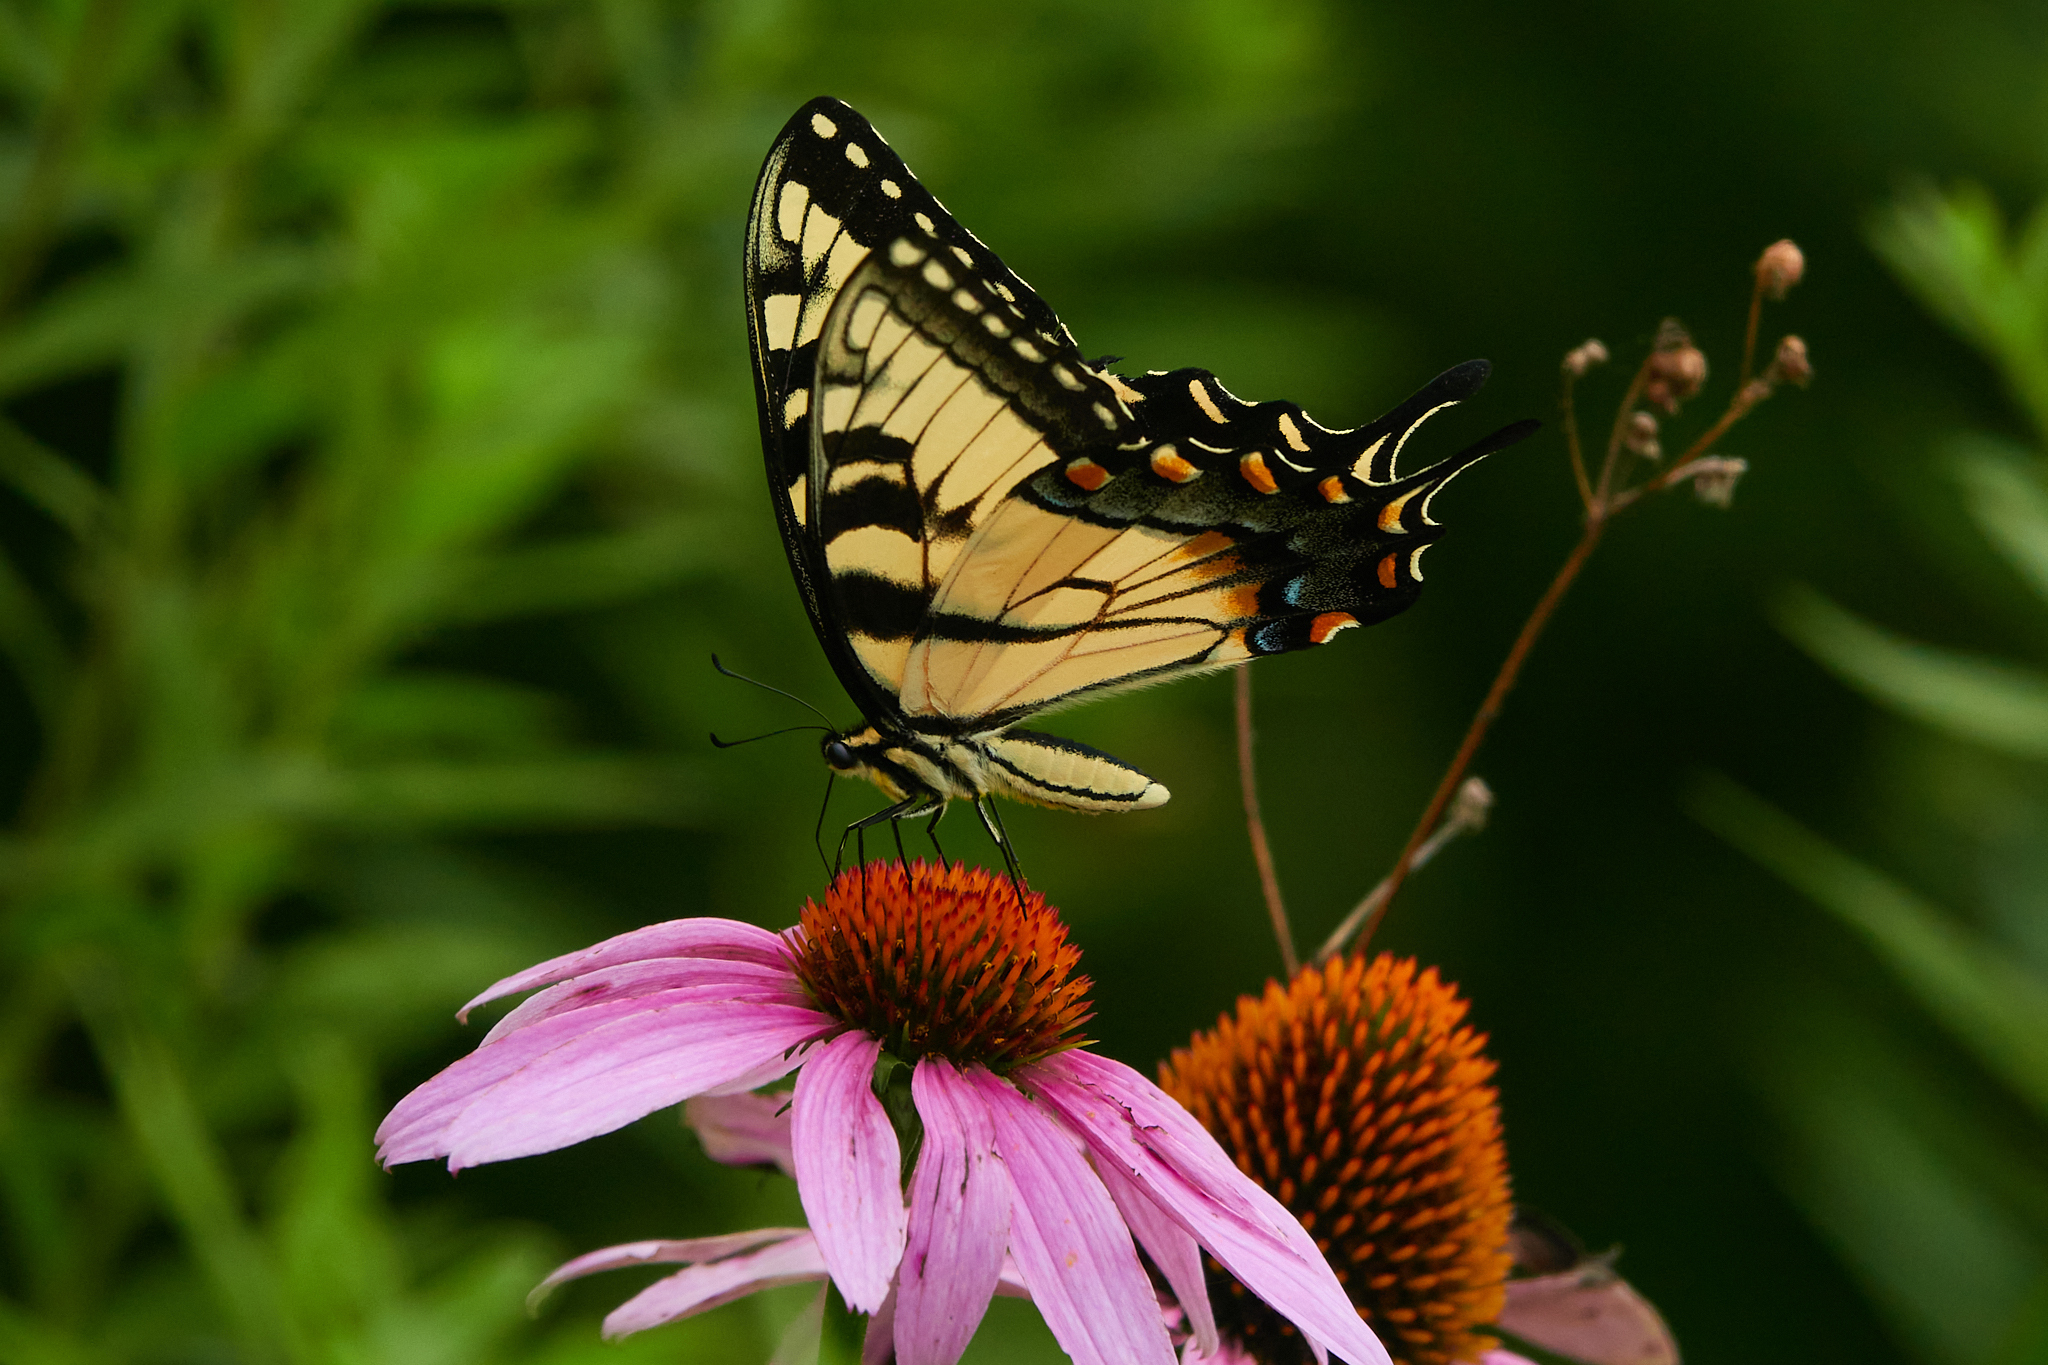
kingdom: Animalia
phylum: Arthropoda
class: Insecta
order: Lepidoptera
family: Papilionidae
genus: Papilio
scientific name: Papilio glaucus
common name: Tiger swallowtail
